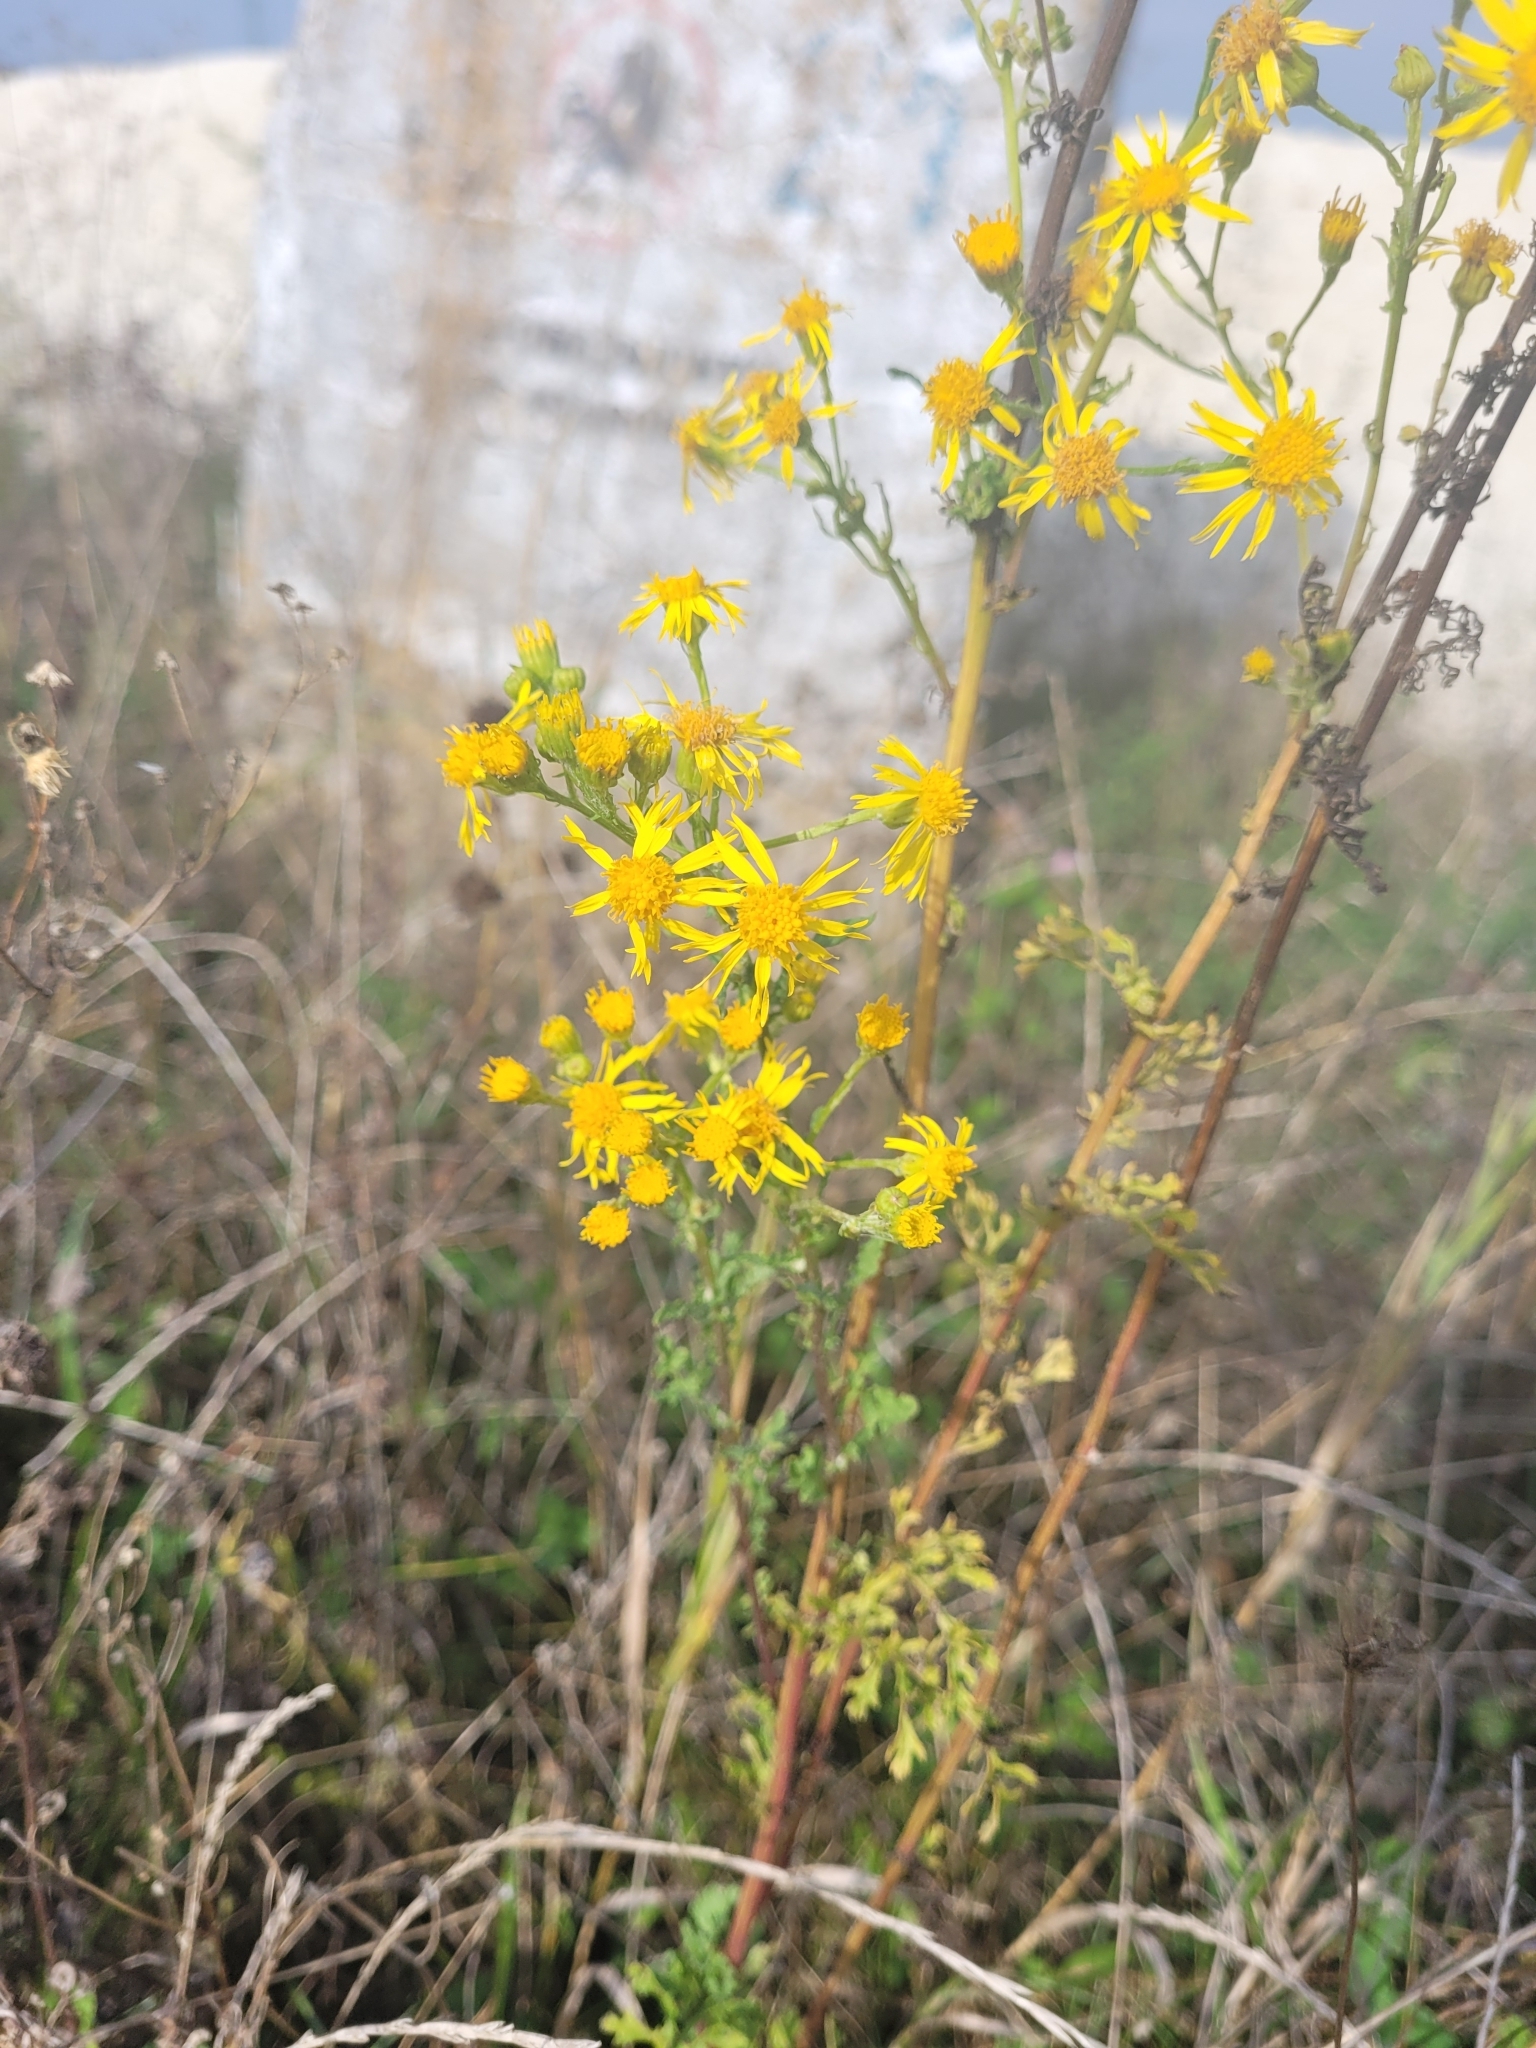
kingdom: Plantae
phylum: Tracheophyta
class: Magnoliopsida
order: Asterales
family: Asteraceae
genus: Jacobaea
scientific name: Jacobaea vulgaris
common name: Stinking willie
